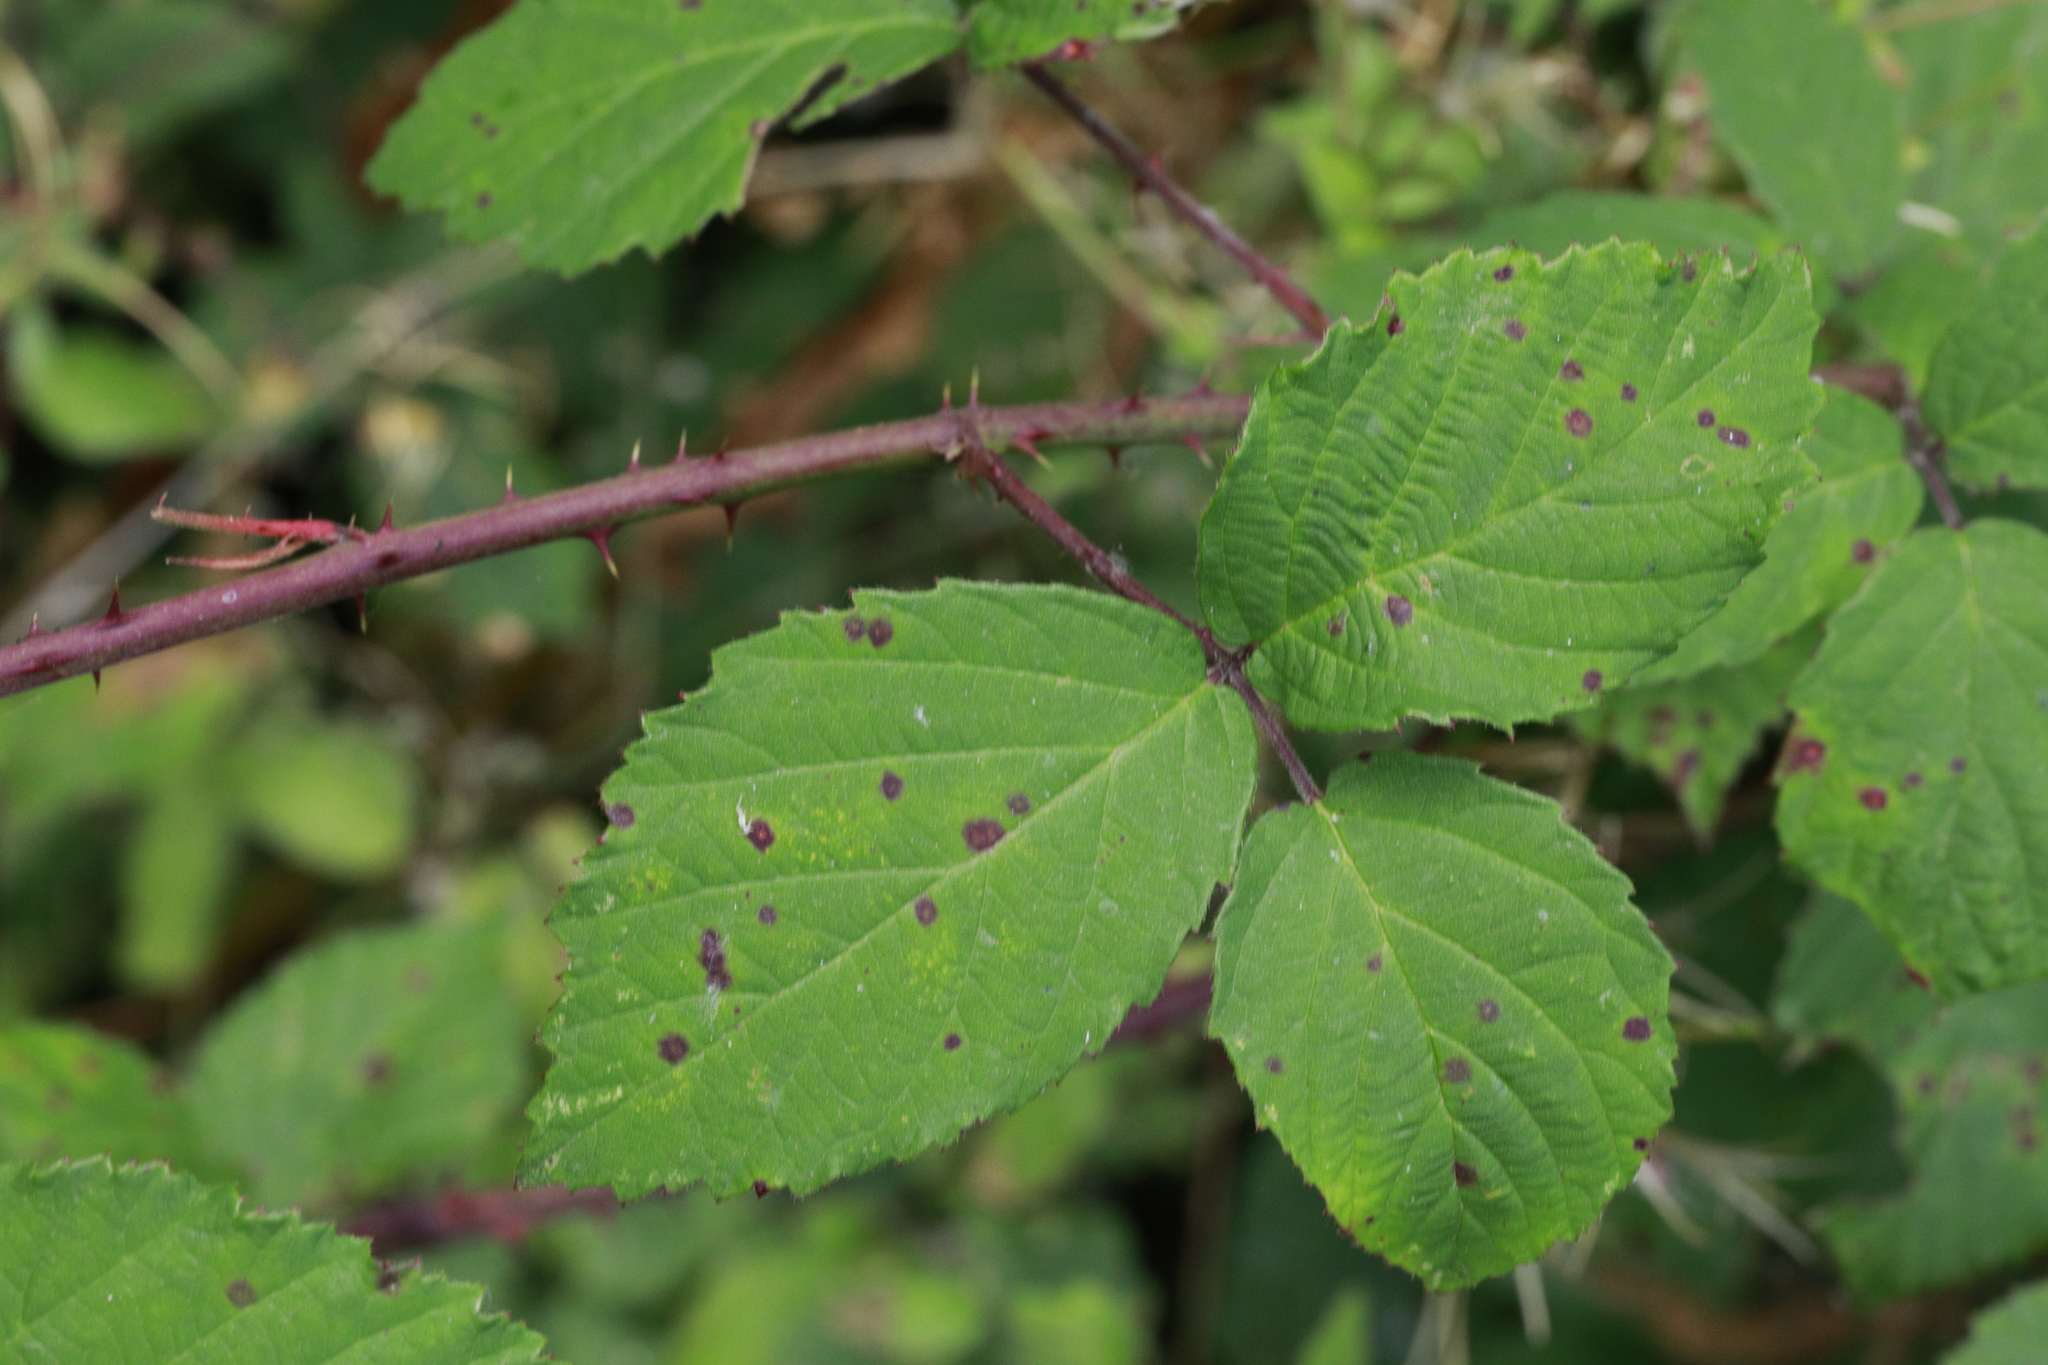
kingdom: Fungi
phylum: Basidiomycota
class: Pucciniomycetes
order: Pucciniales
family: Phragmidiaceae
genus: Phragmidium
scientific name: Phragmidium violaceum
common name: Violet bramble rust
